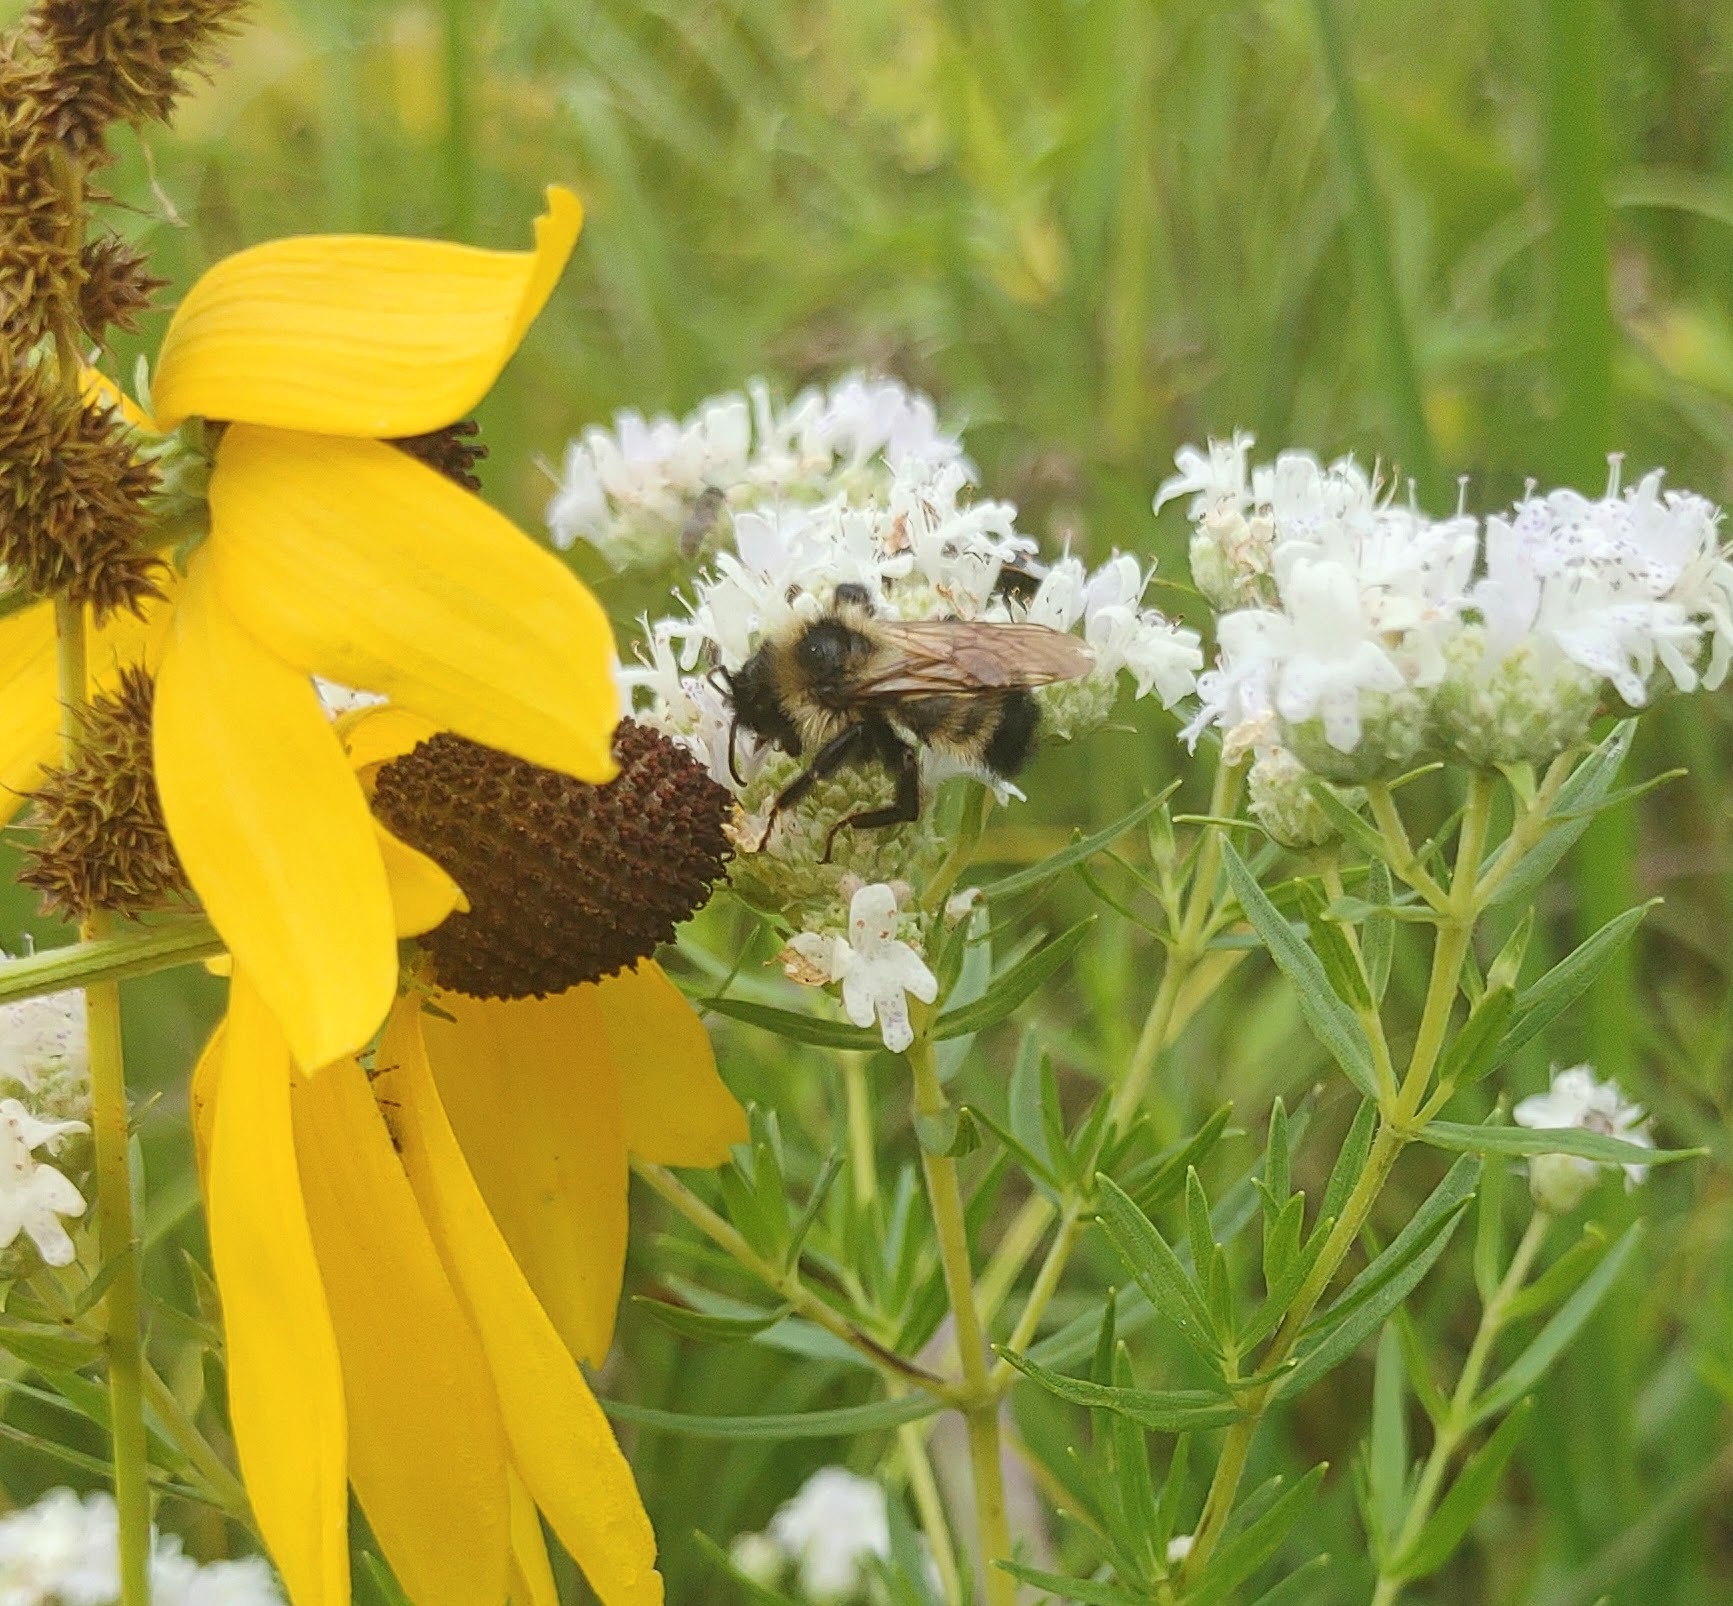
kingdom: Animalia
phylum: Arthropoda
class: Insecta
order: Hymenoptera
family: Apidae
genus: Bombus
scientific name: Bombus citrinus
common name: Lemon cuckoo bumble bee
